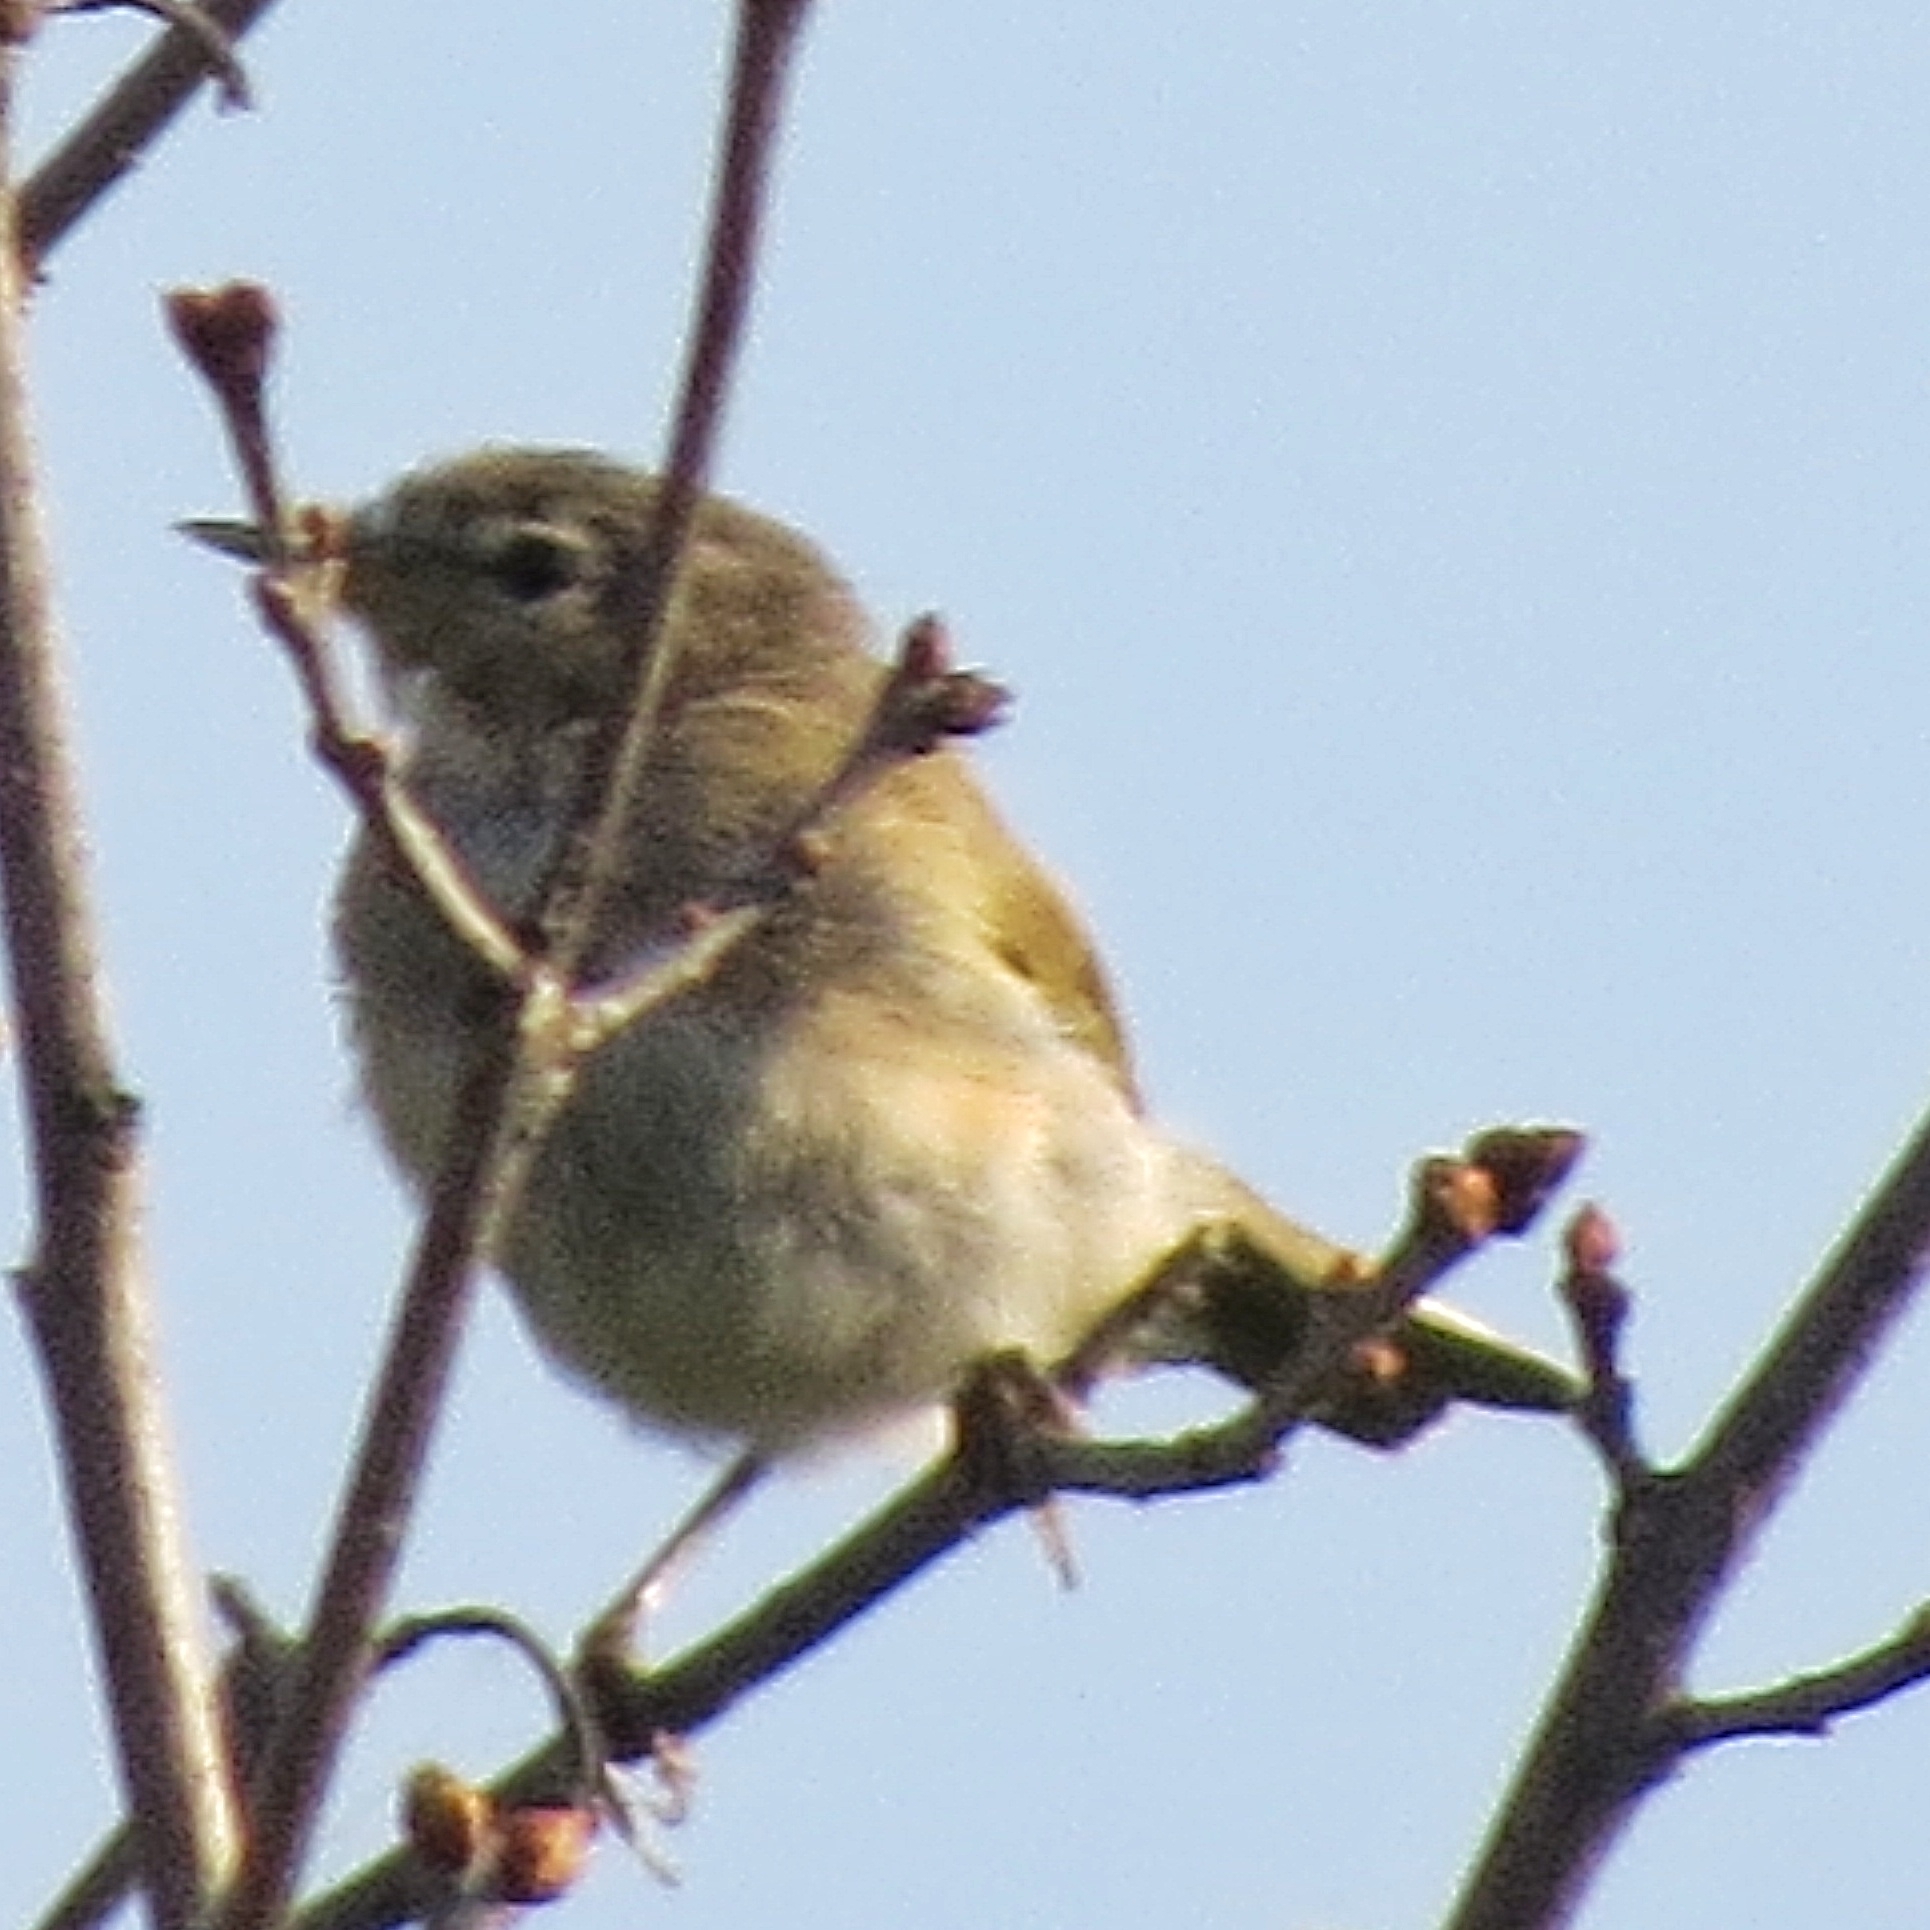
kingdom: Animalia
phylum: Chordata
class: Aves
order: Passeriformes
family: Phylloscopidae
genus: Phylloscopus
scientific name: Phylloscopus collybita
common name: Common chiffchaff
